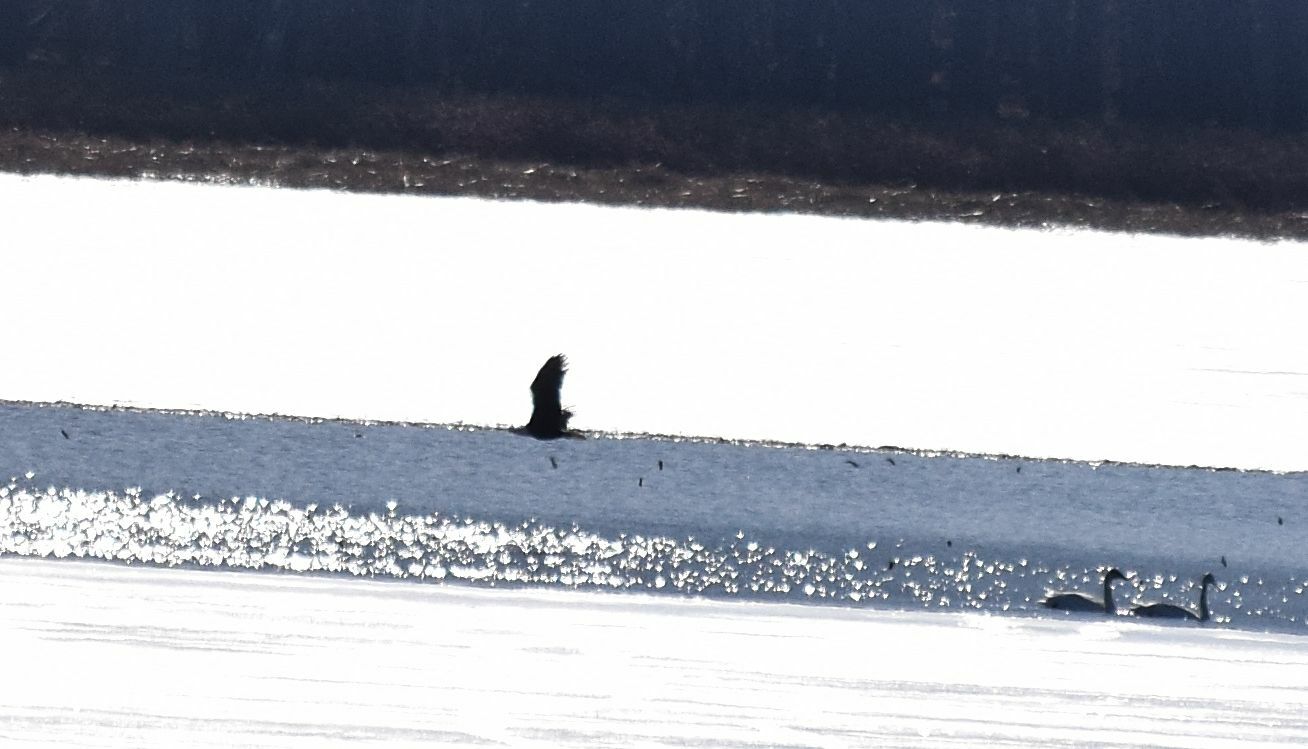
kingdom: Animalia
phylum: Chordata
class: Aves
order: Accipitriformes
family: Accipitridae
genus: Haliaeetus
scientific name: Haliaeetus leucocephalus
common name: Bald eagle
